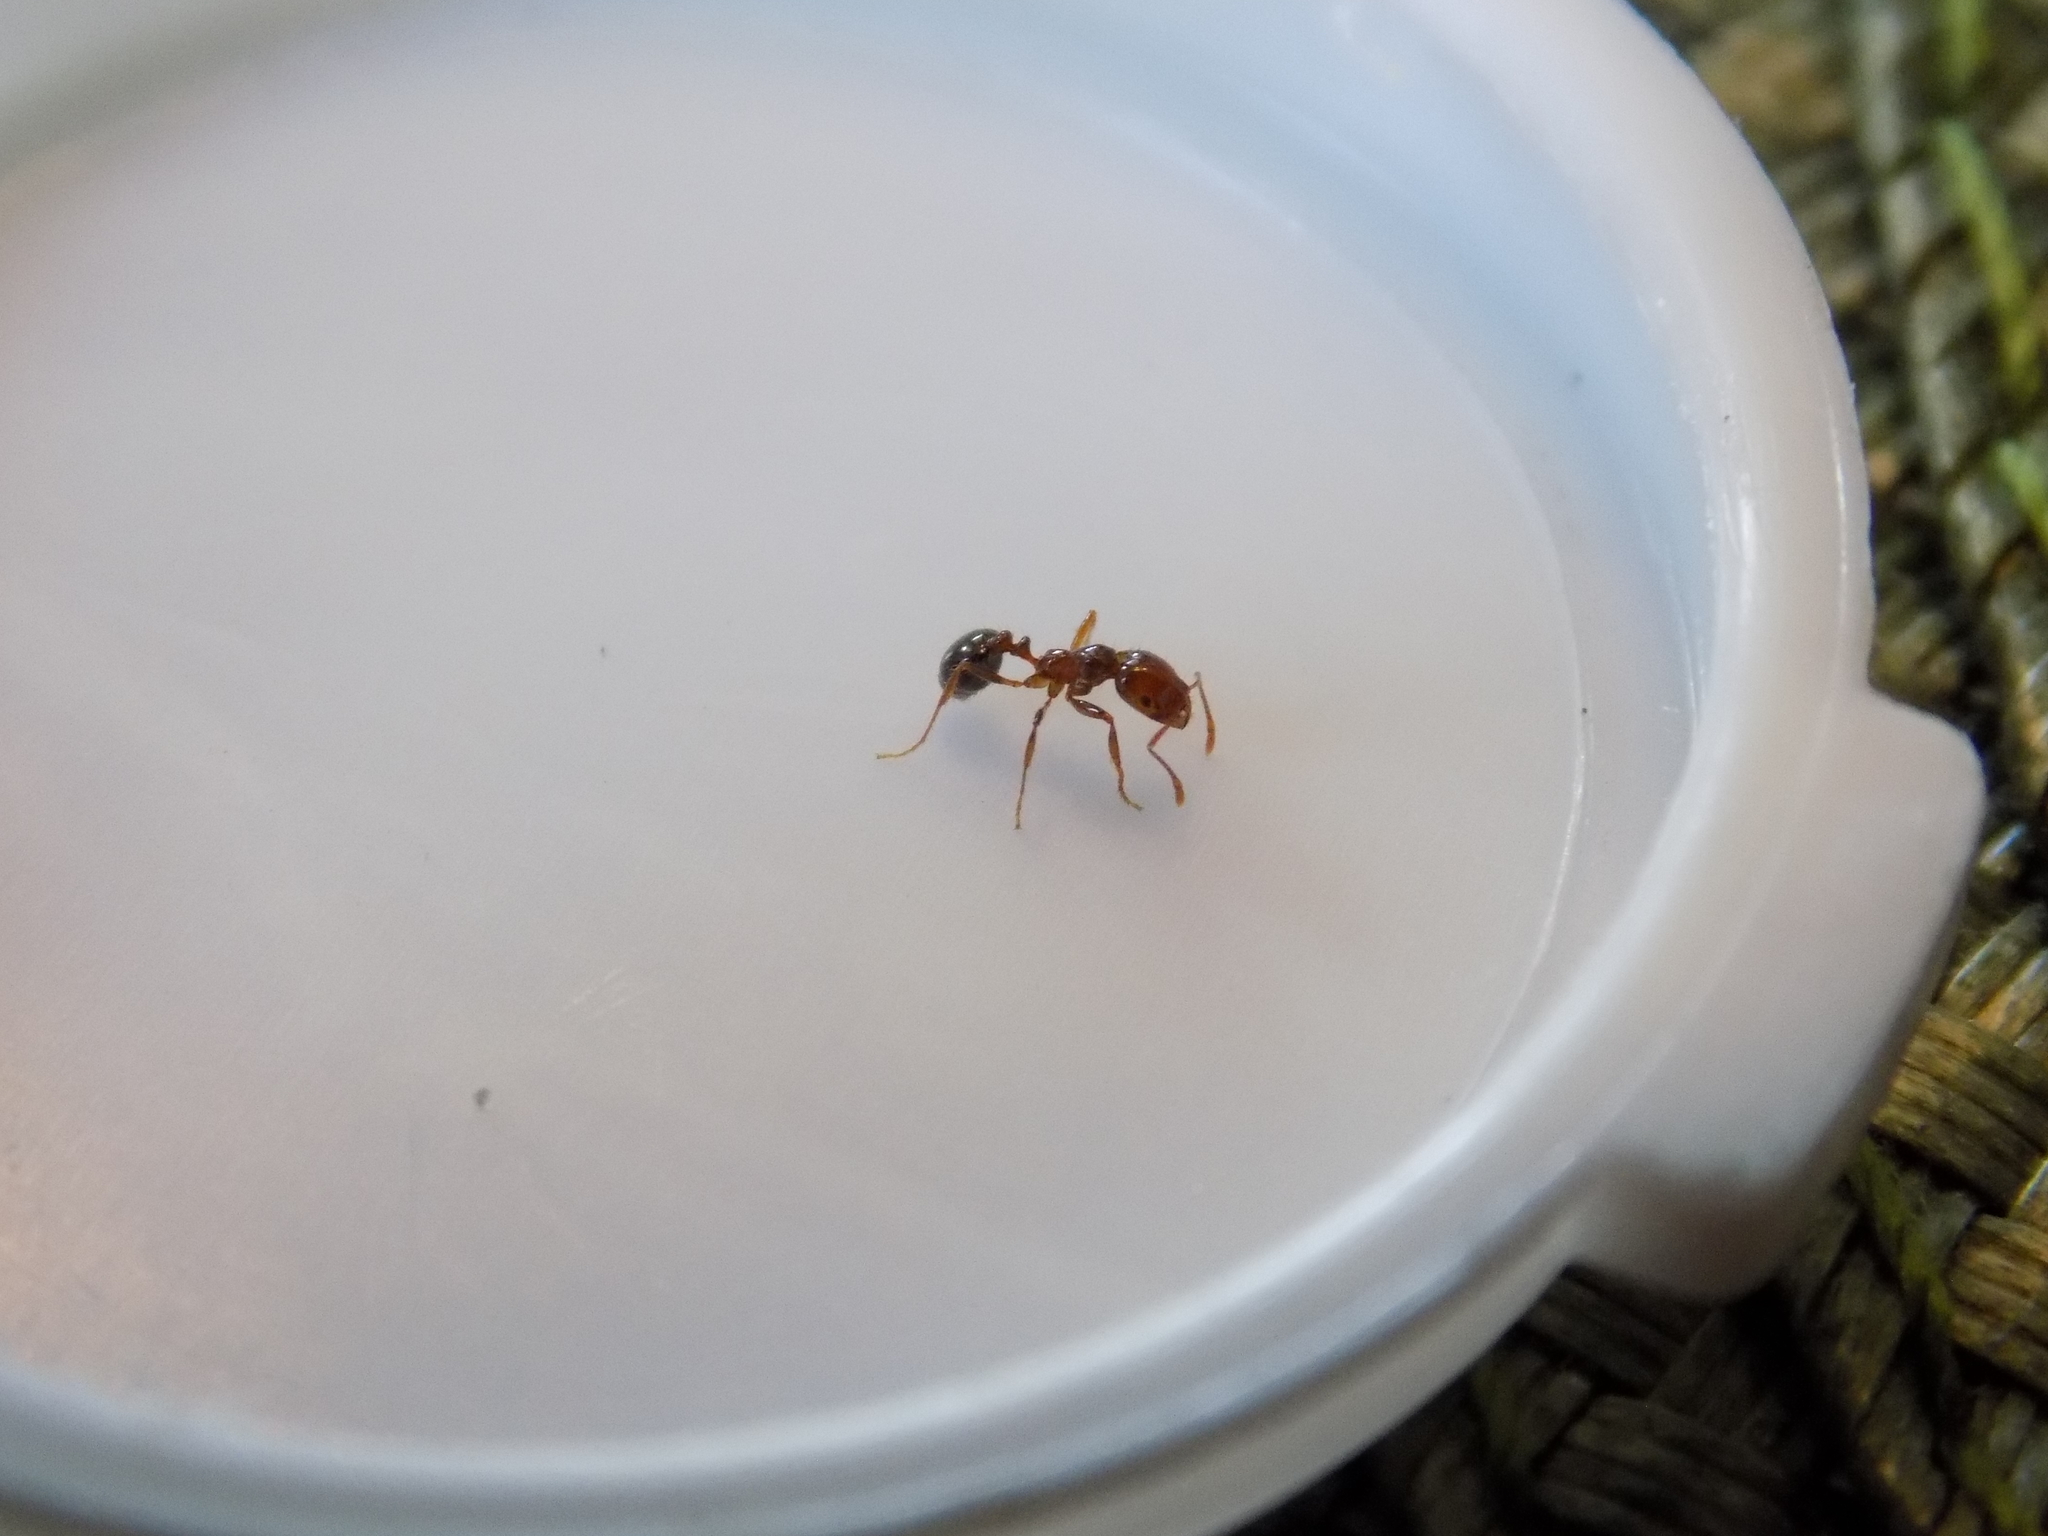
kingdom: Animalia
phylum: Arthropoda
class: Insecta
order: Hymenoptera
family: Formicidae
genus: Solenopsis
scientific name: Solenopsis invicta
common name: Red imported fire ant
